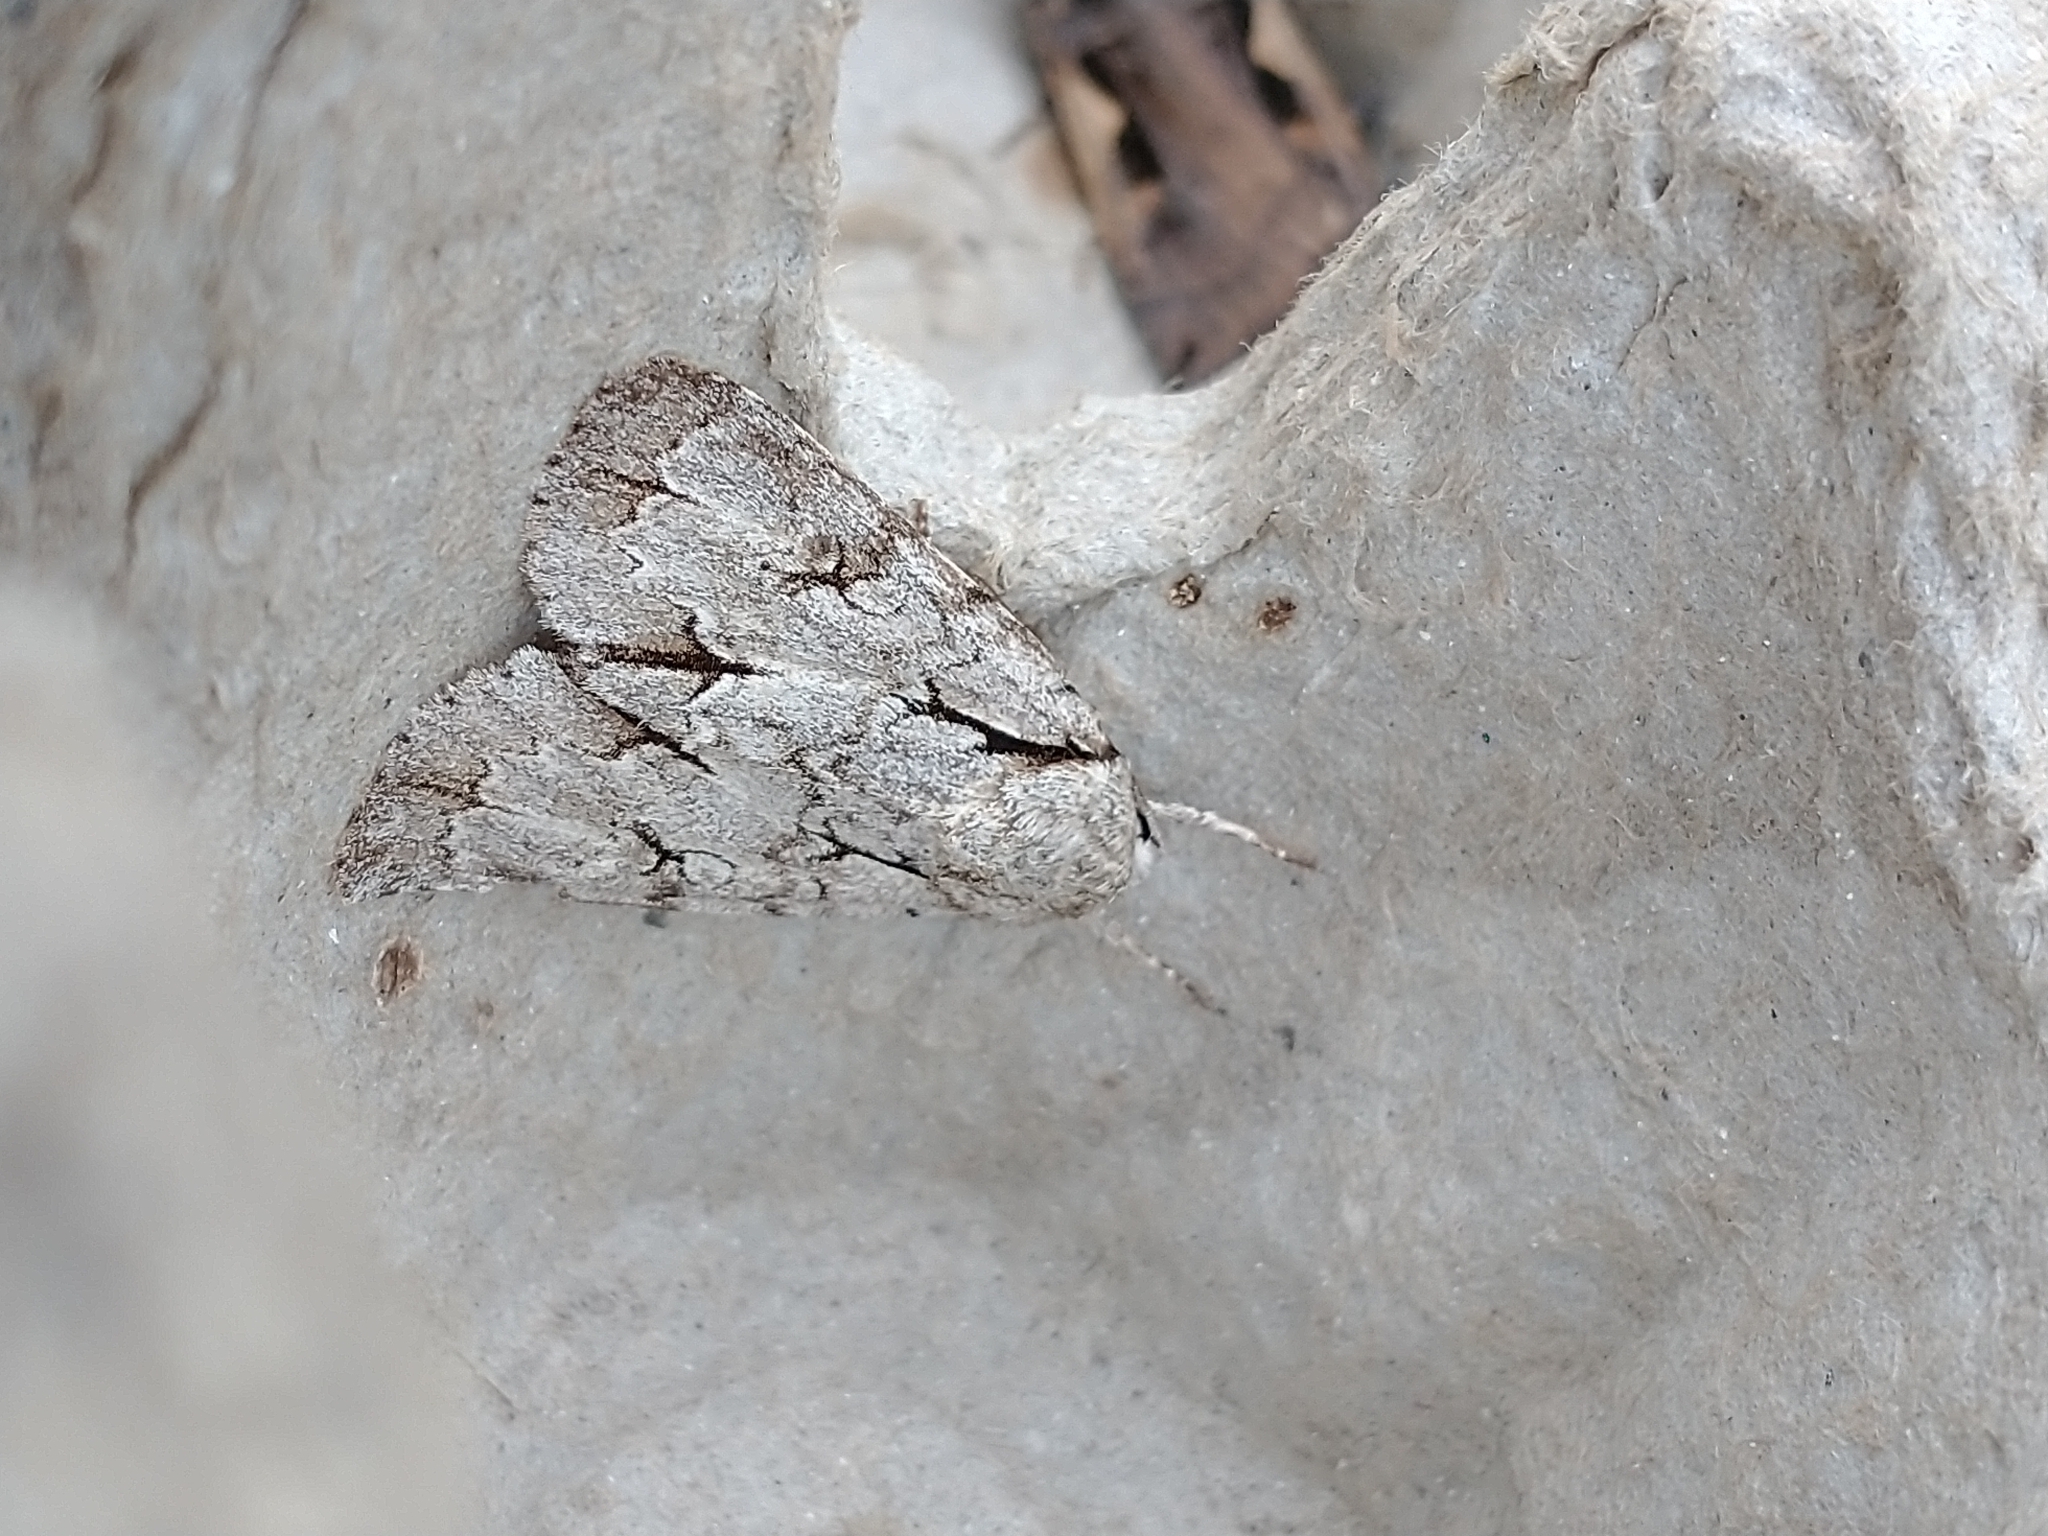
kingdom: Animalia
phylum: Arthropoda
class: Insecta
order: Lepidoptera
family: Noctuidae
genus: Acronicta
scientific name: Acronicta
